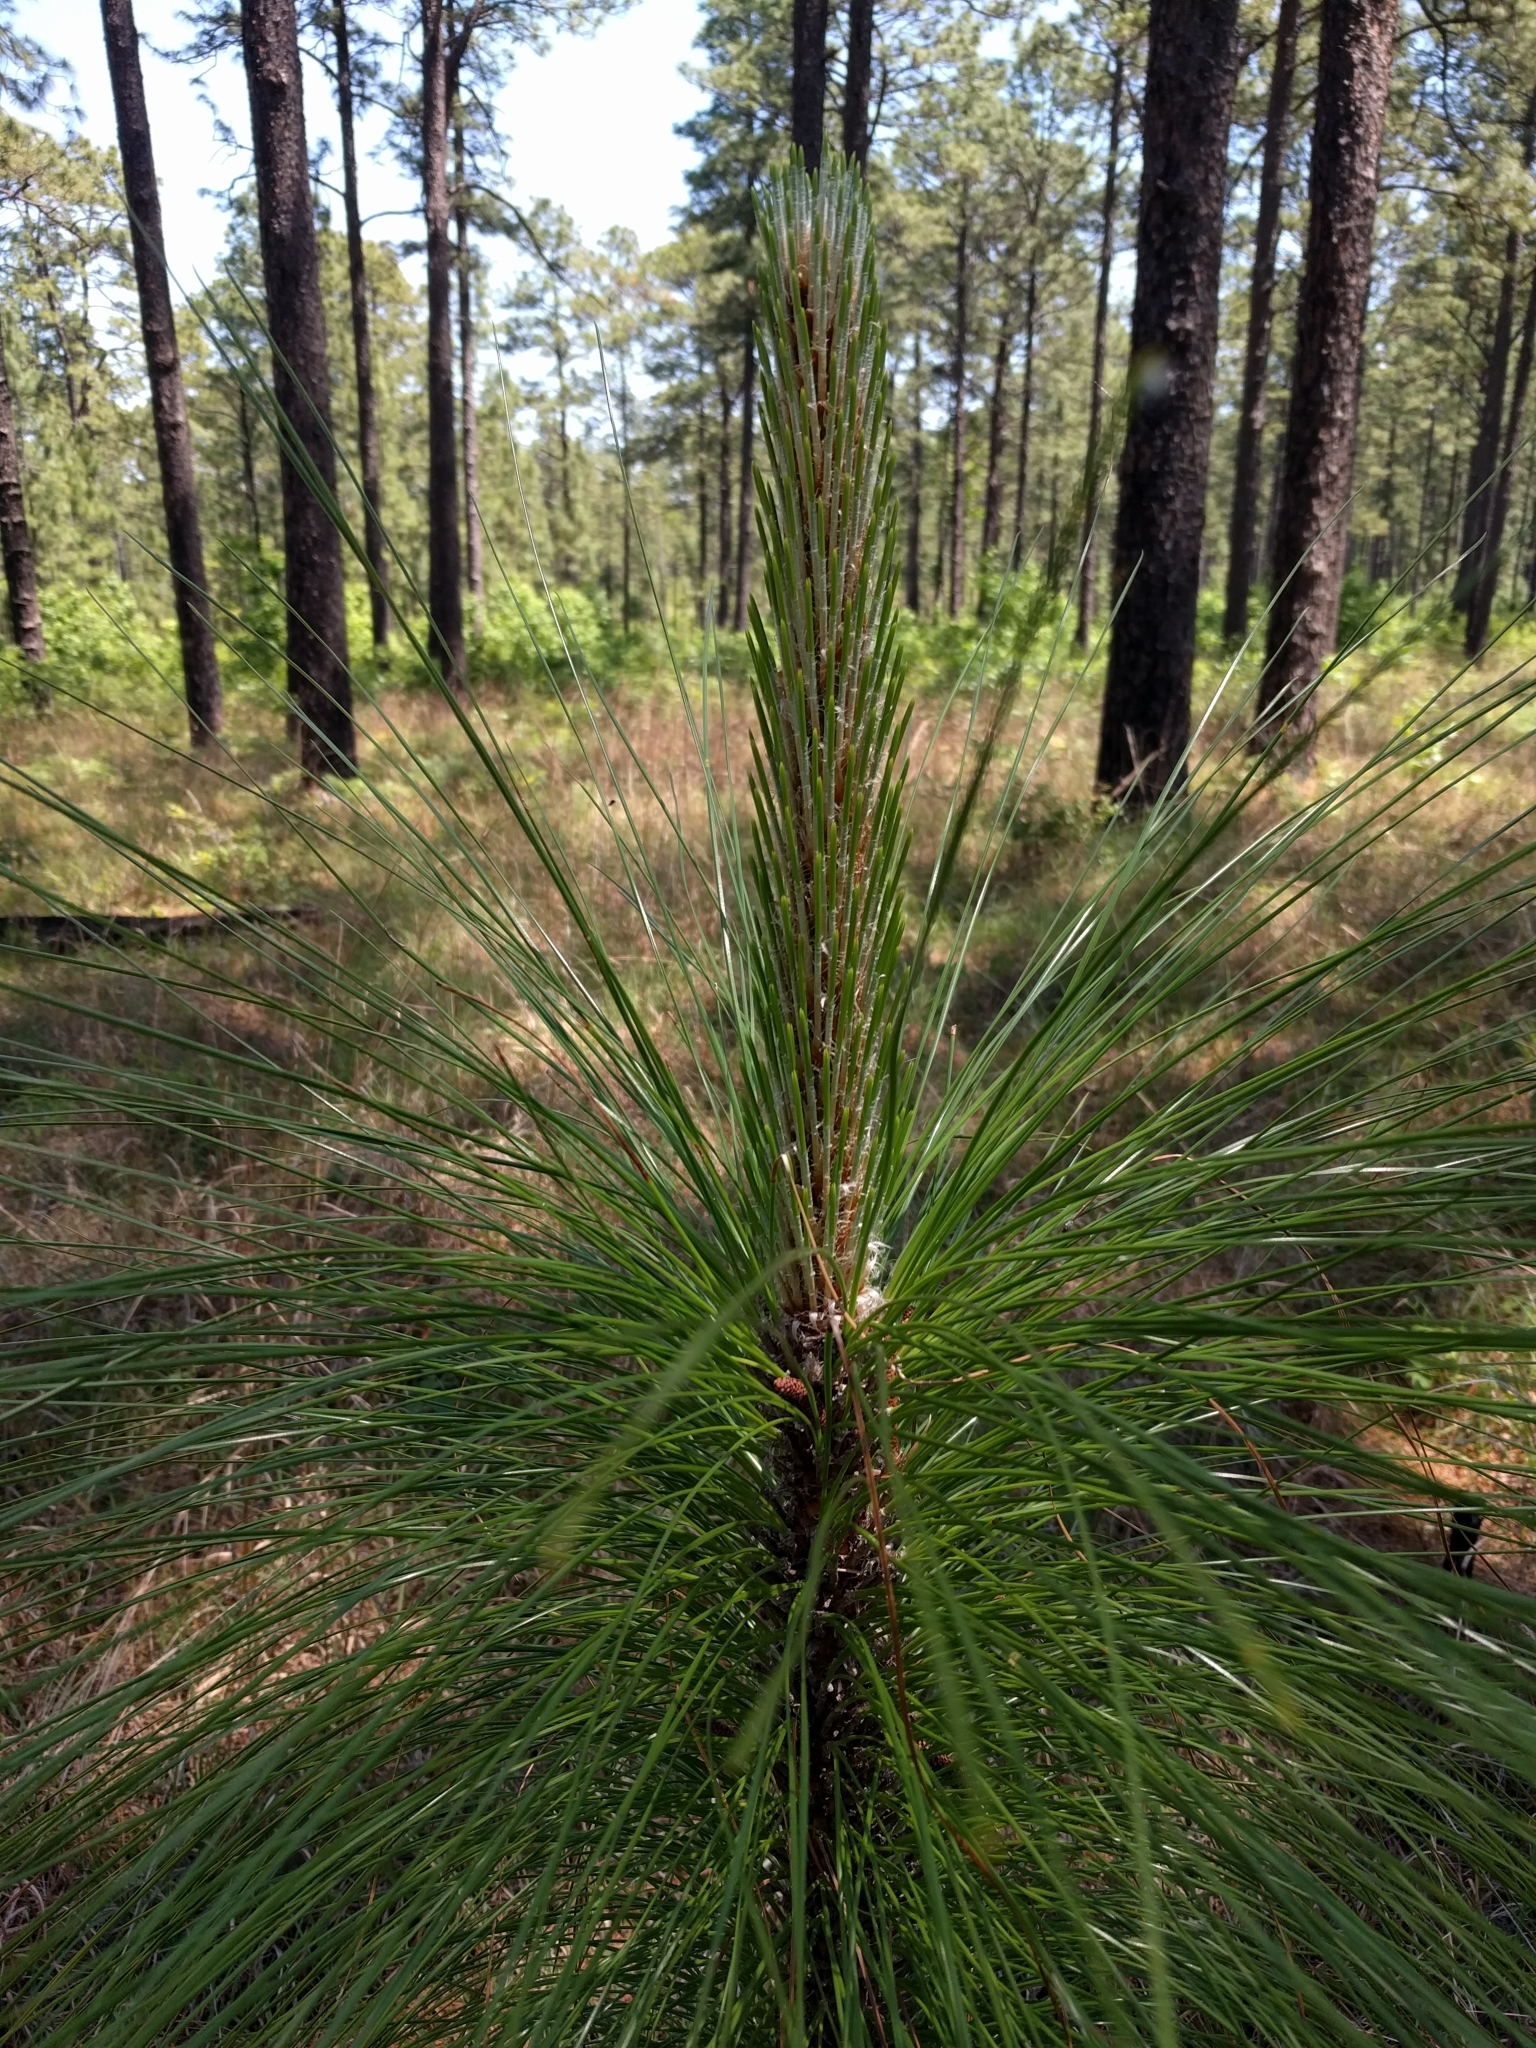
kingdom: Plantae
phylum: Tracheophyta
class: Pinopsida
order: Pinales
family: Pinaceae
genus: Pinus
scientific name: Pinus palustris
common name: Longleaf pine
